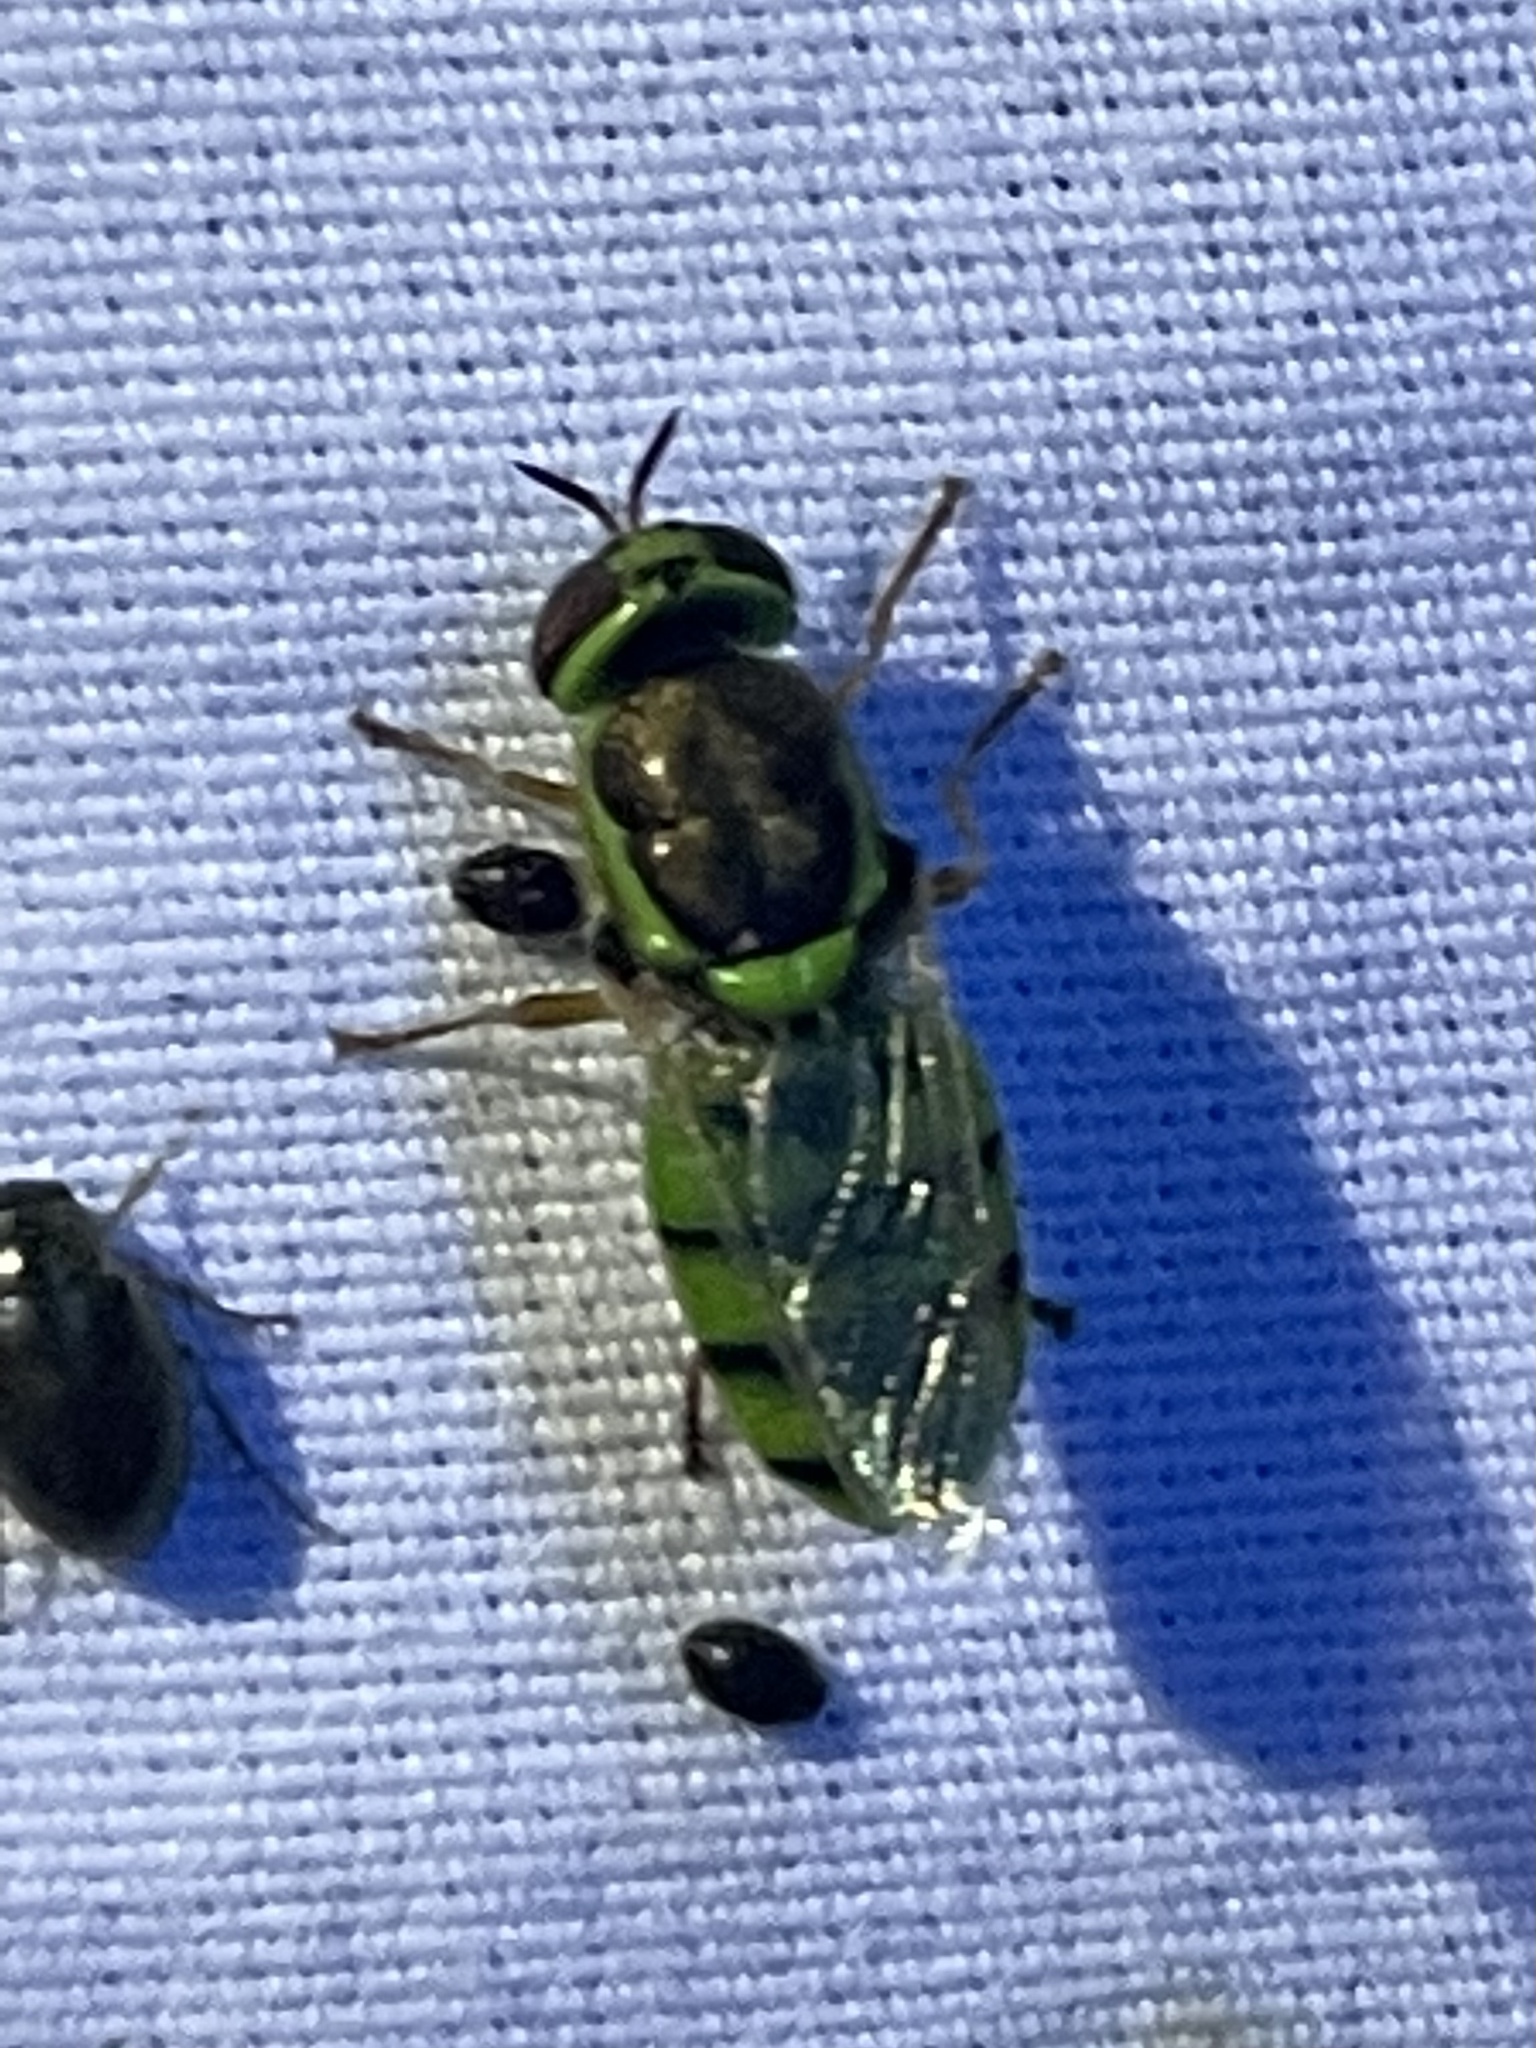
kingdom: Animalia
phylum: Arthropoda
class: Insecta
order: Diptera
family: Stratiomyidae
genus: Odontomyia
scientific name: Odontomyia cincta
